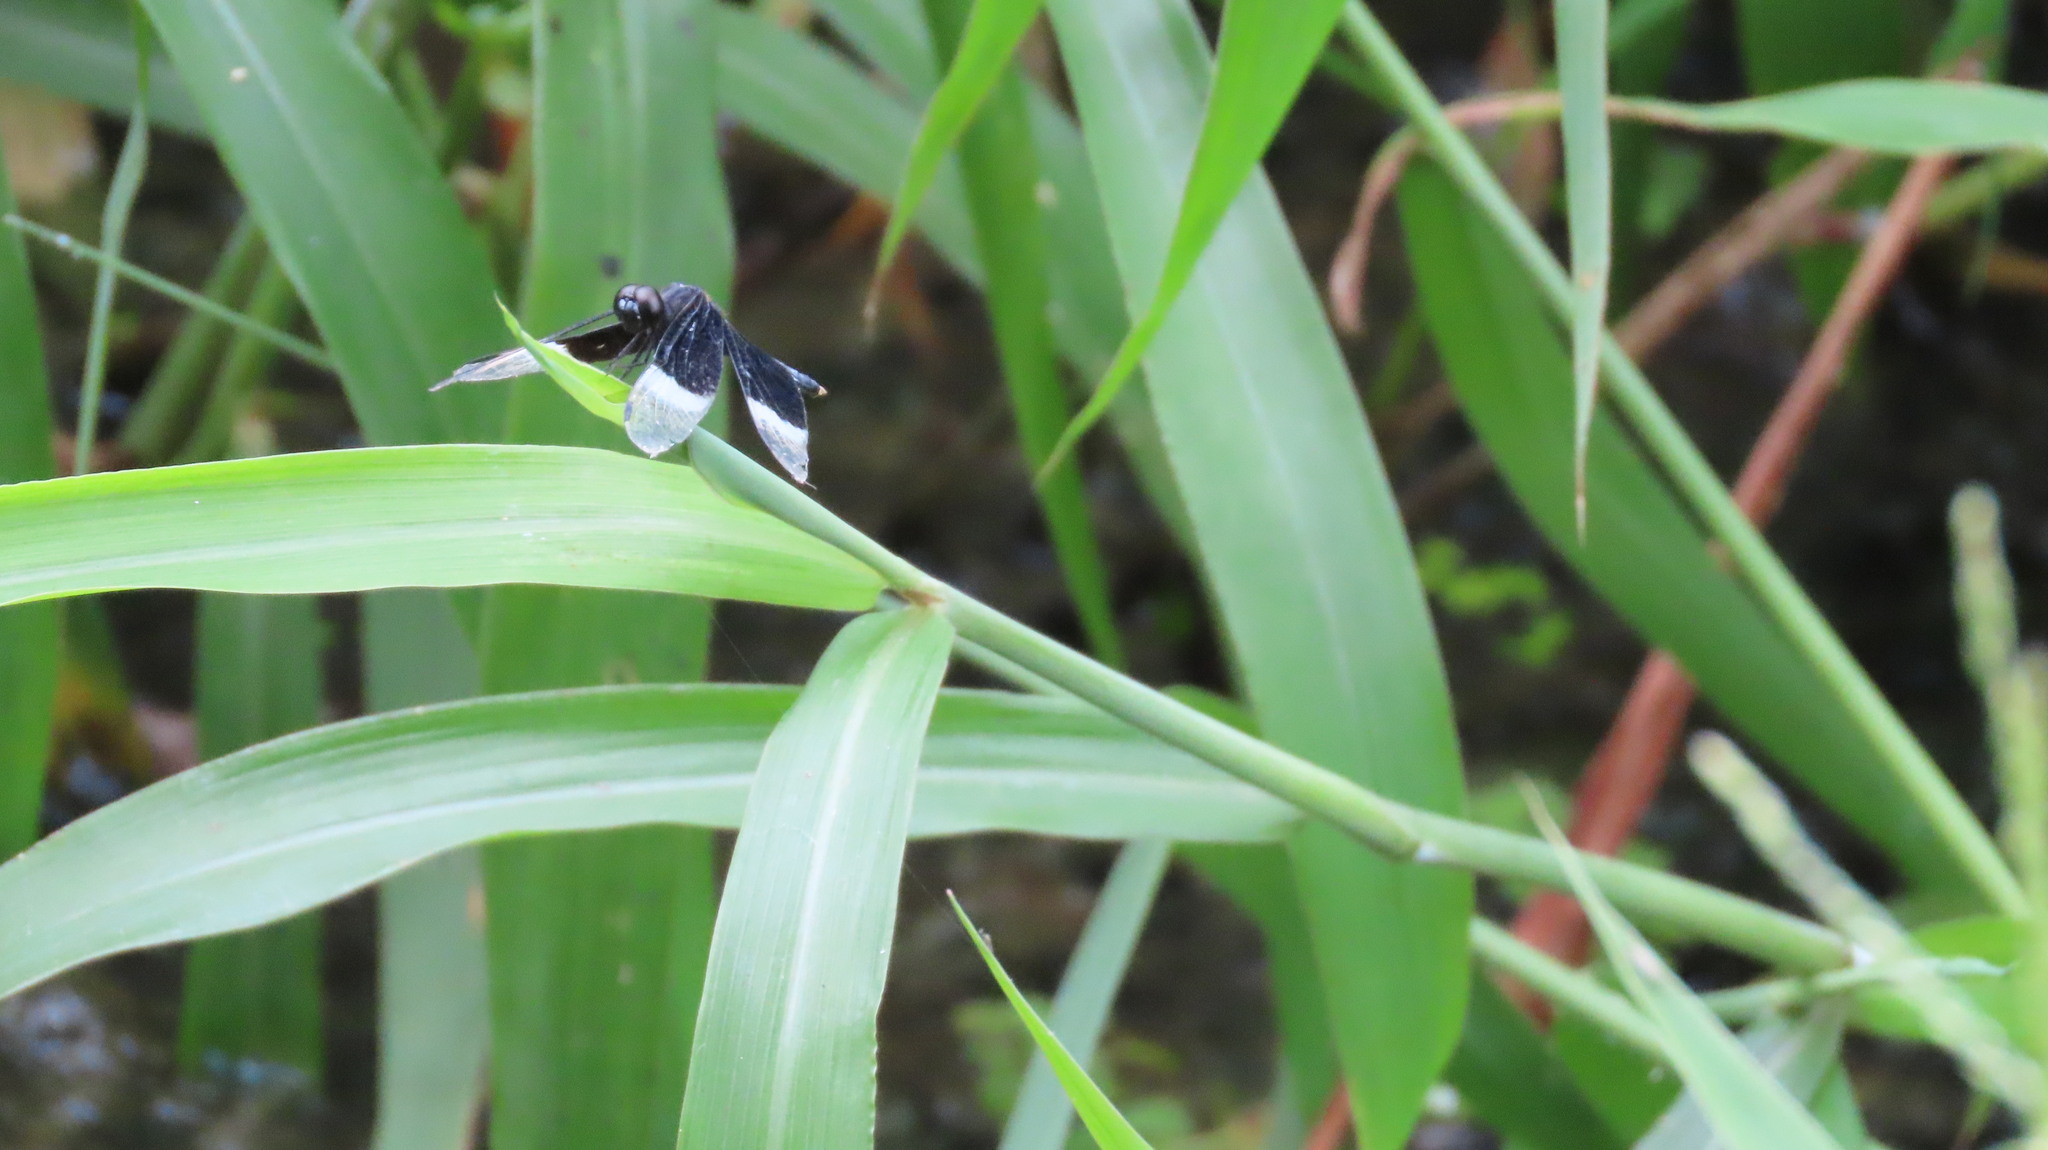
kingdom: Animalia
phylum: Arthropoda
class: Insecta
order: Odonata
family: Libellulidae
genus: Neurothemis
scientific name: Neurothemis tullia
